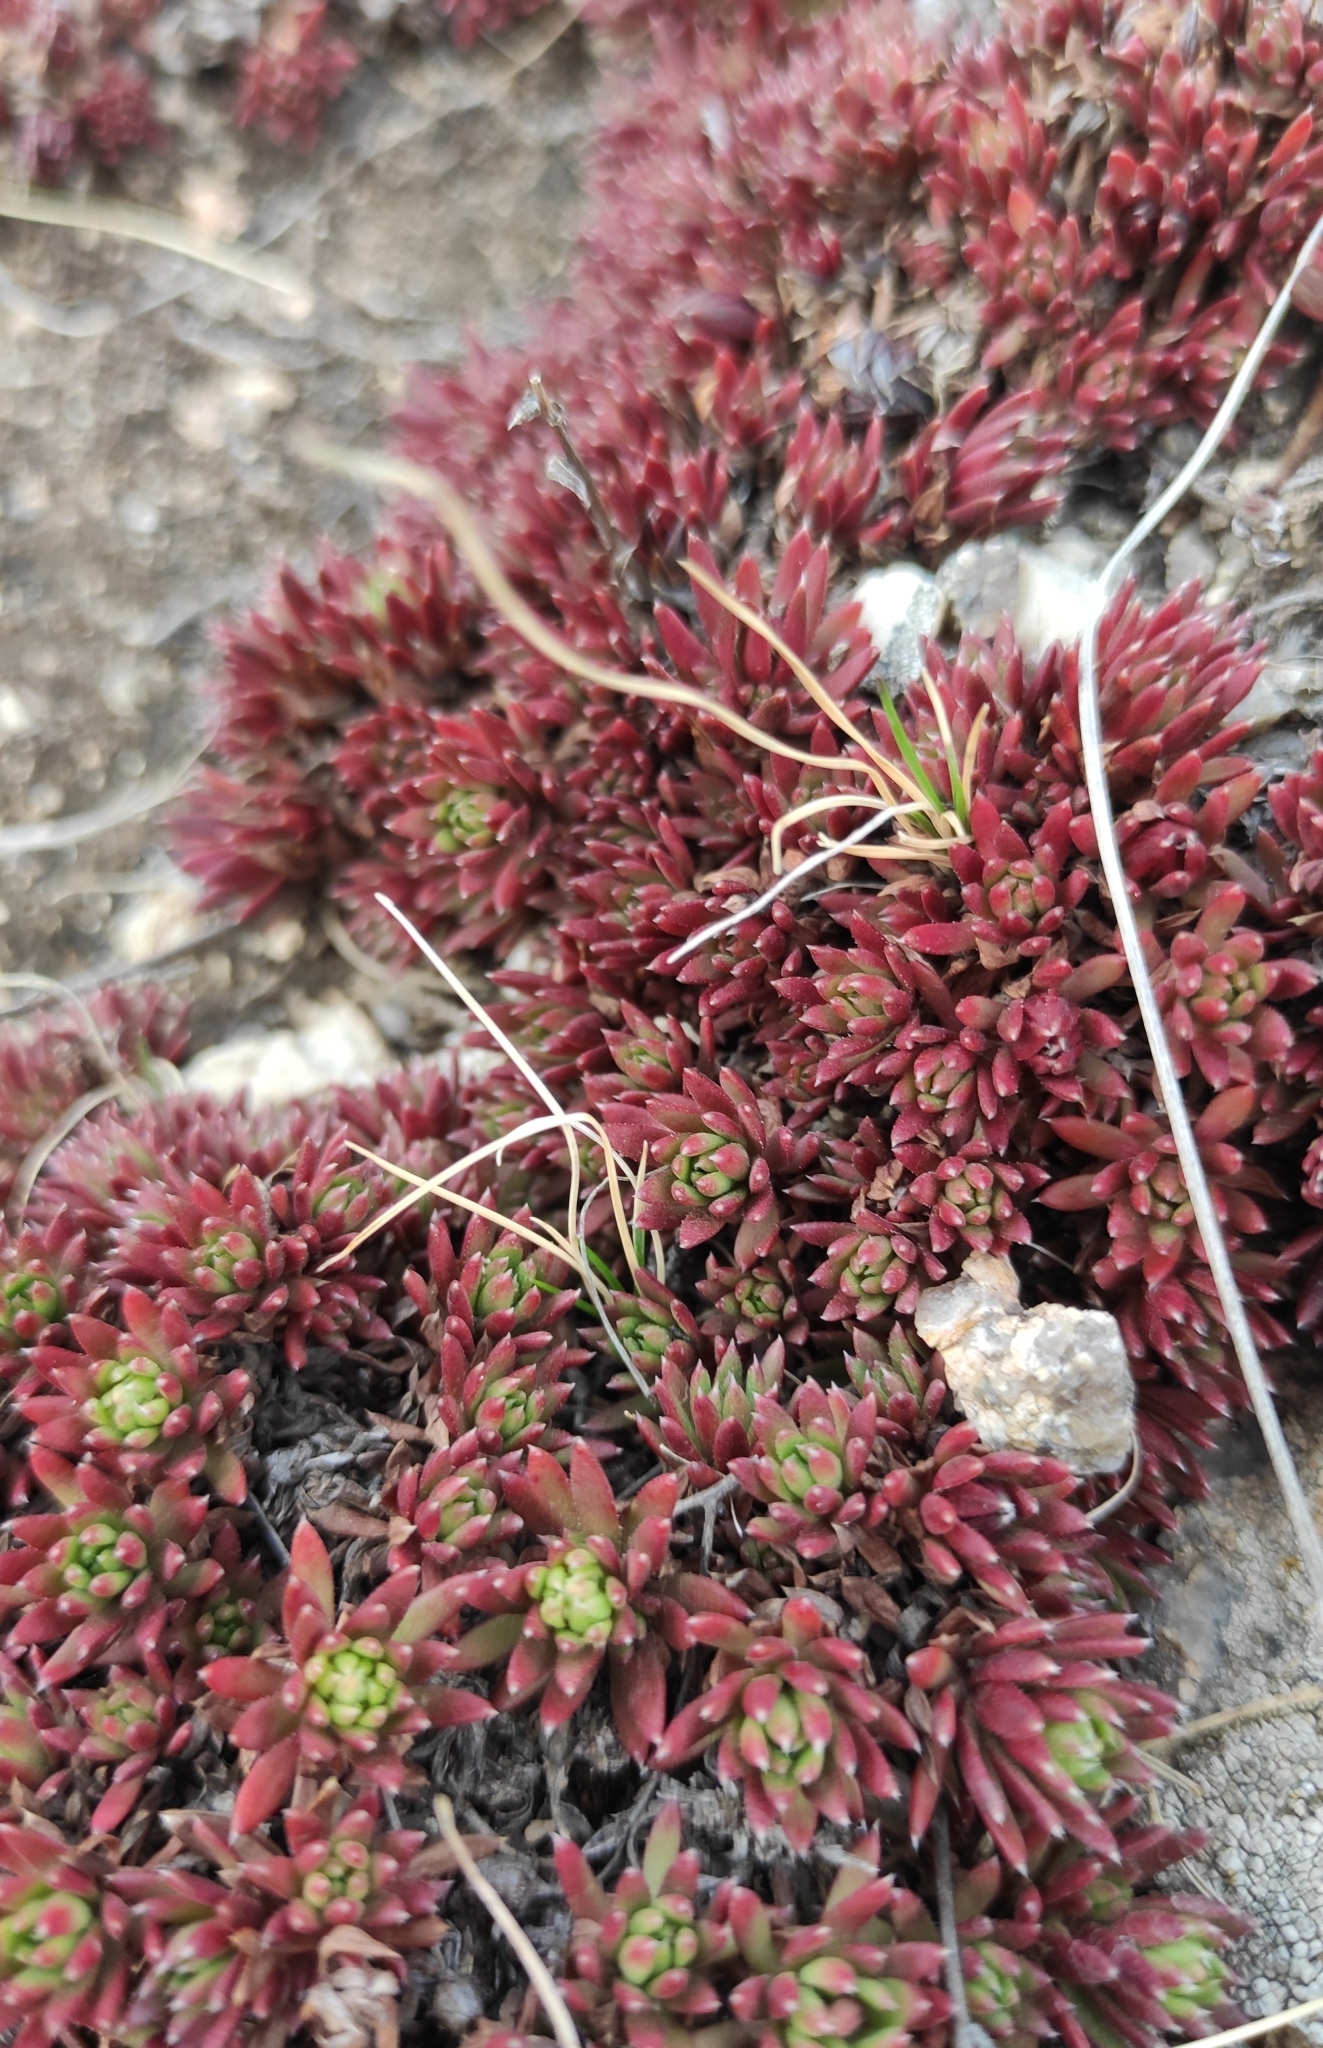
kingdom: Plantae
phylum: Tracheophyta
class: Magnoliopsida
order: Saxifragales
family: Saxifragaceae
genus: Saxifraga
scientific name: Saxifraga
